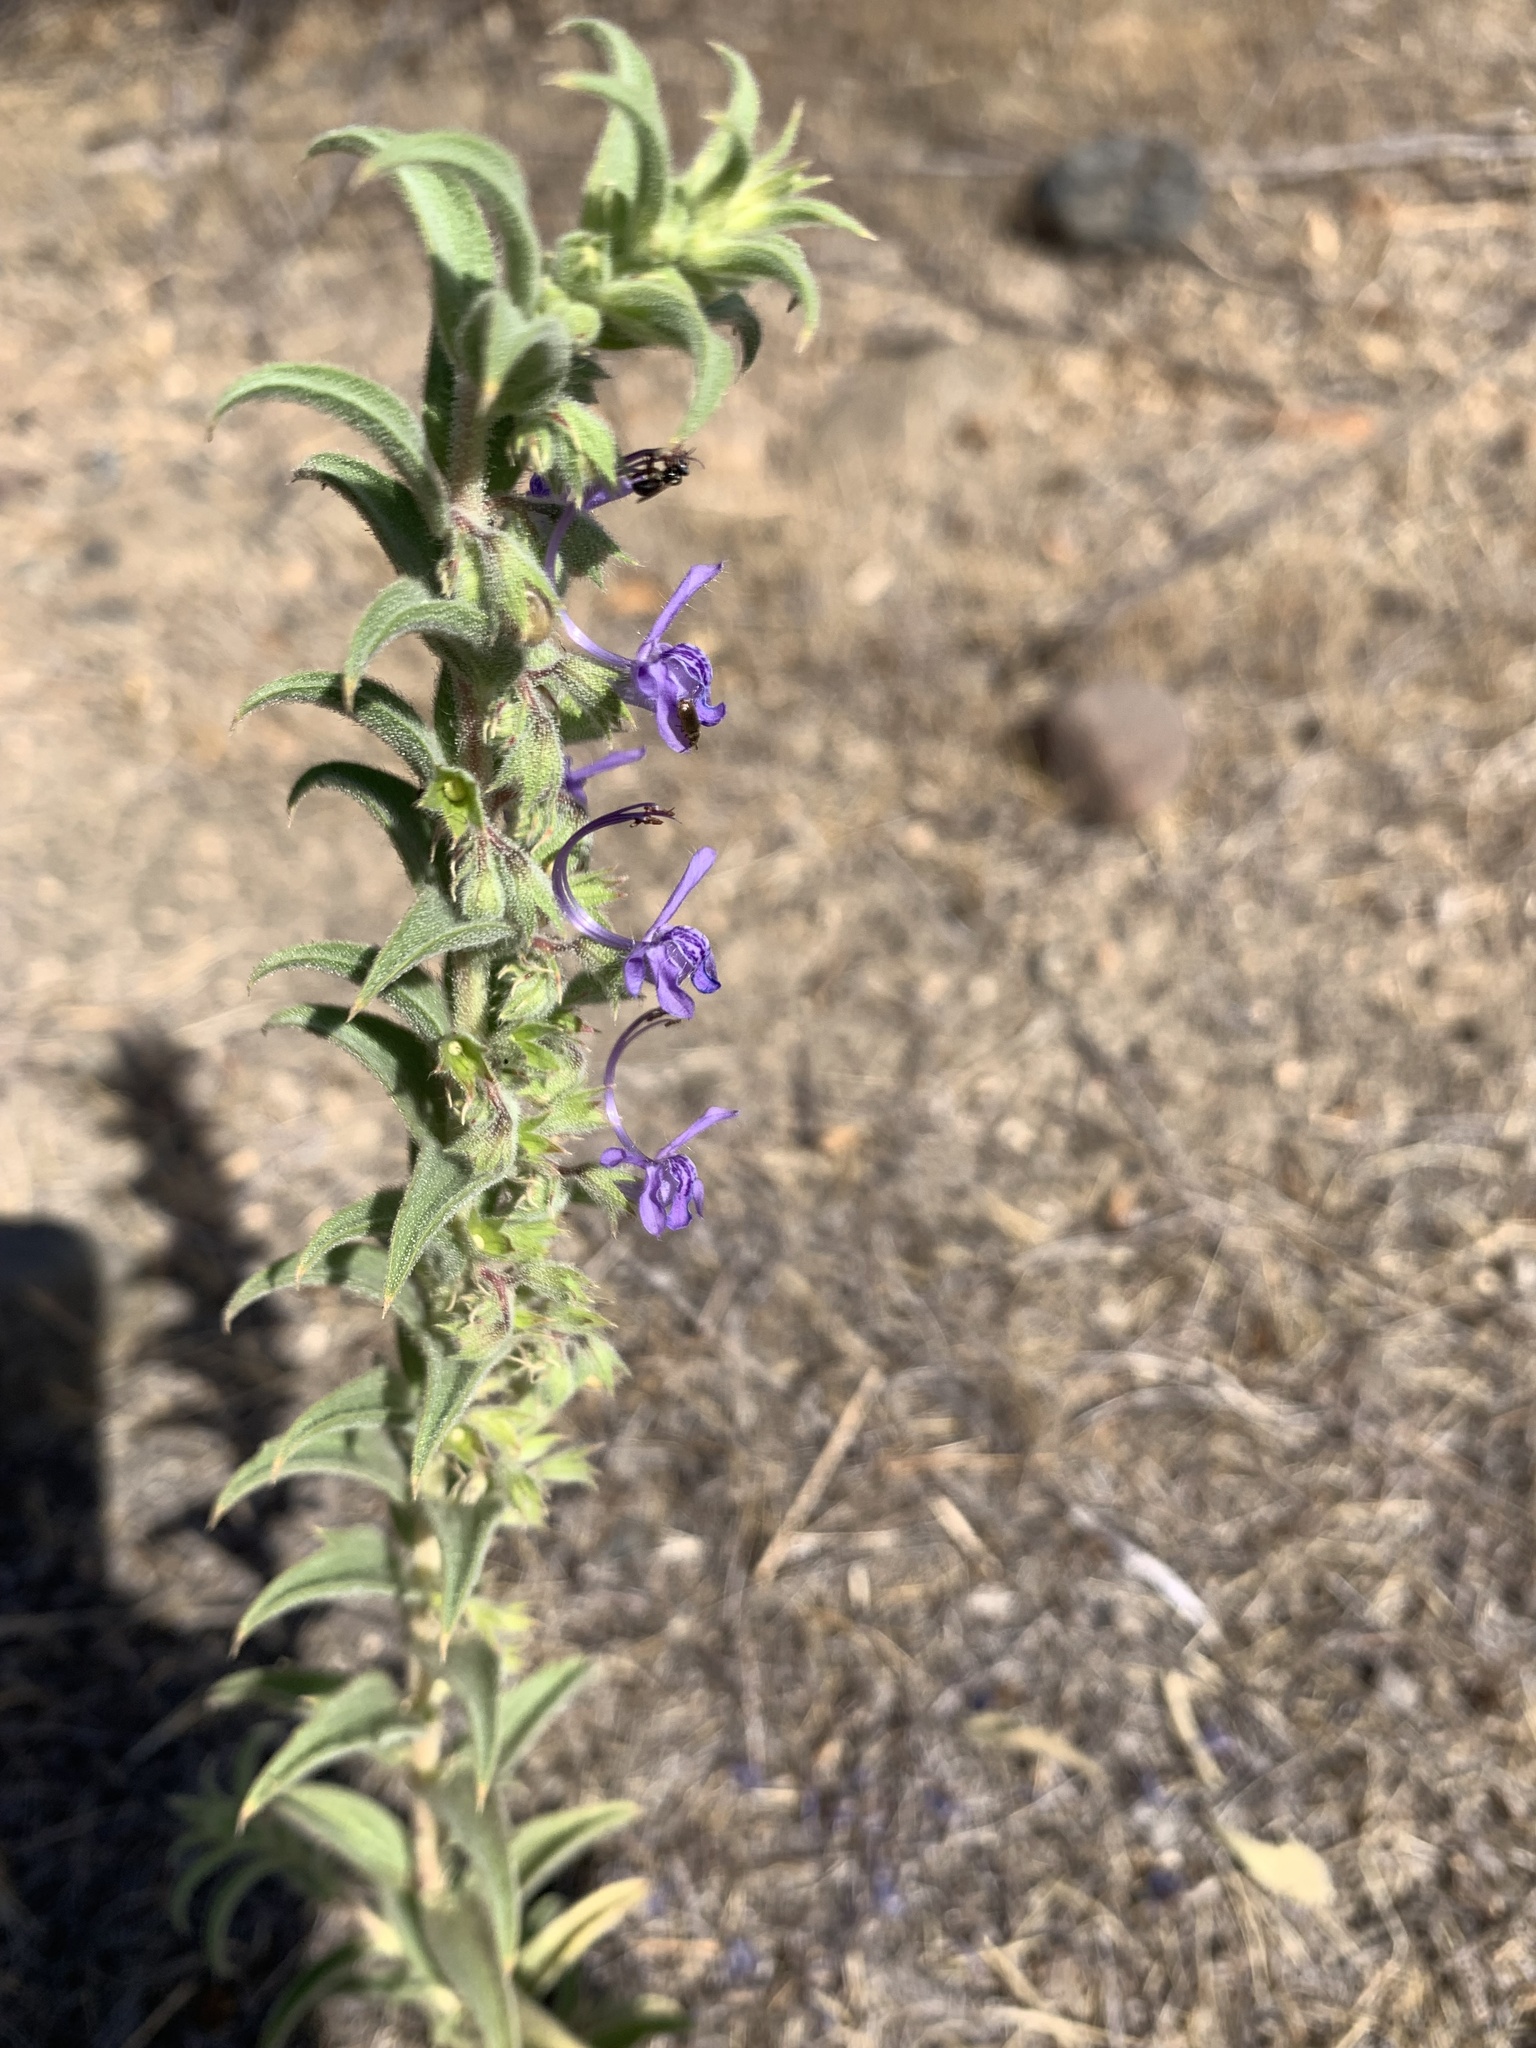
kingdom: Plantae
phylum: Tracheophyta
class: Magnoliopsida
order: Lamiales
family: Lamiaceae
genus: Trichostema
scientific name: Trichostema lanceolatum
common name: Vinegar-weed
